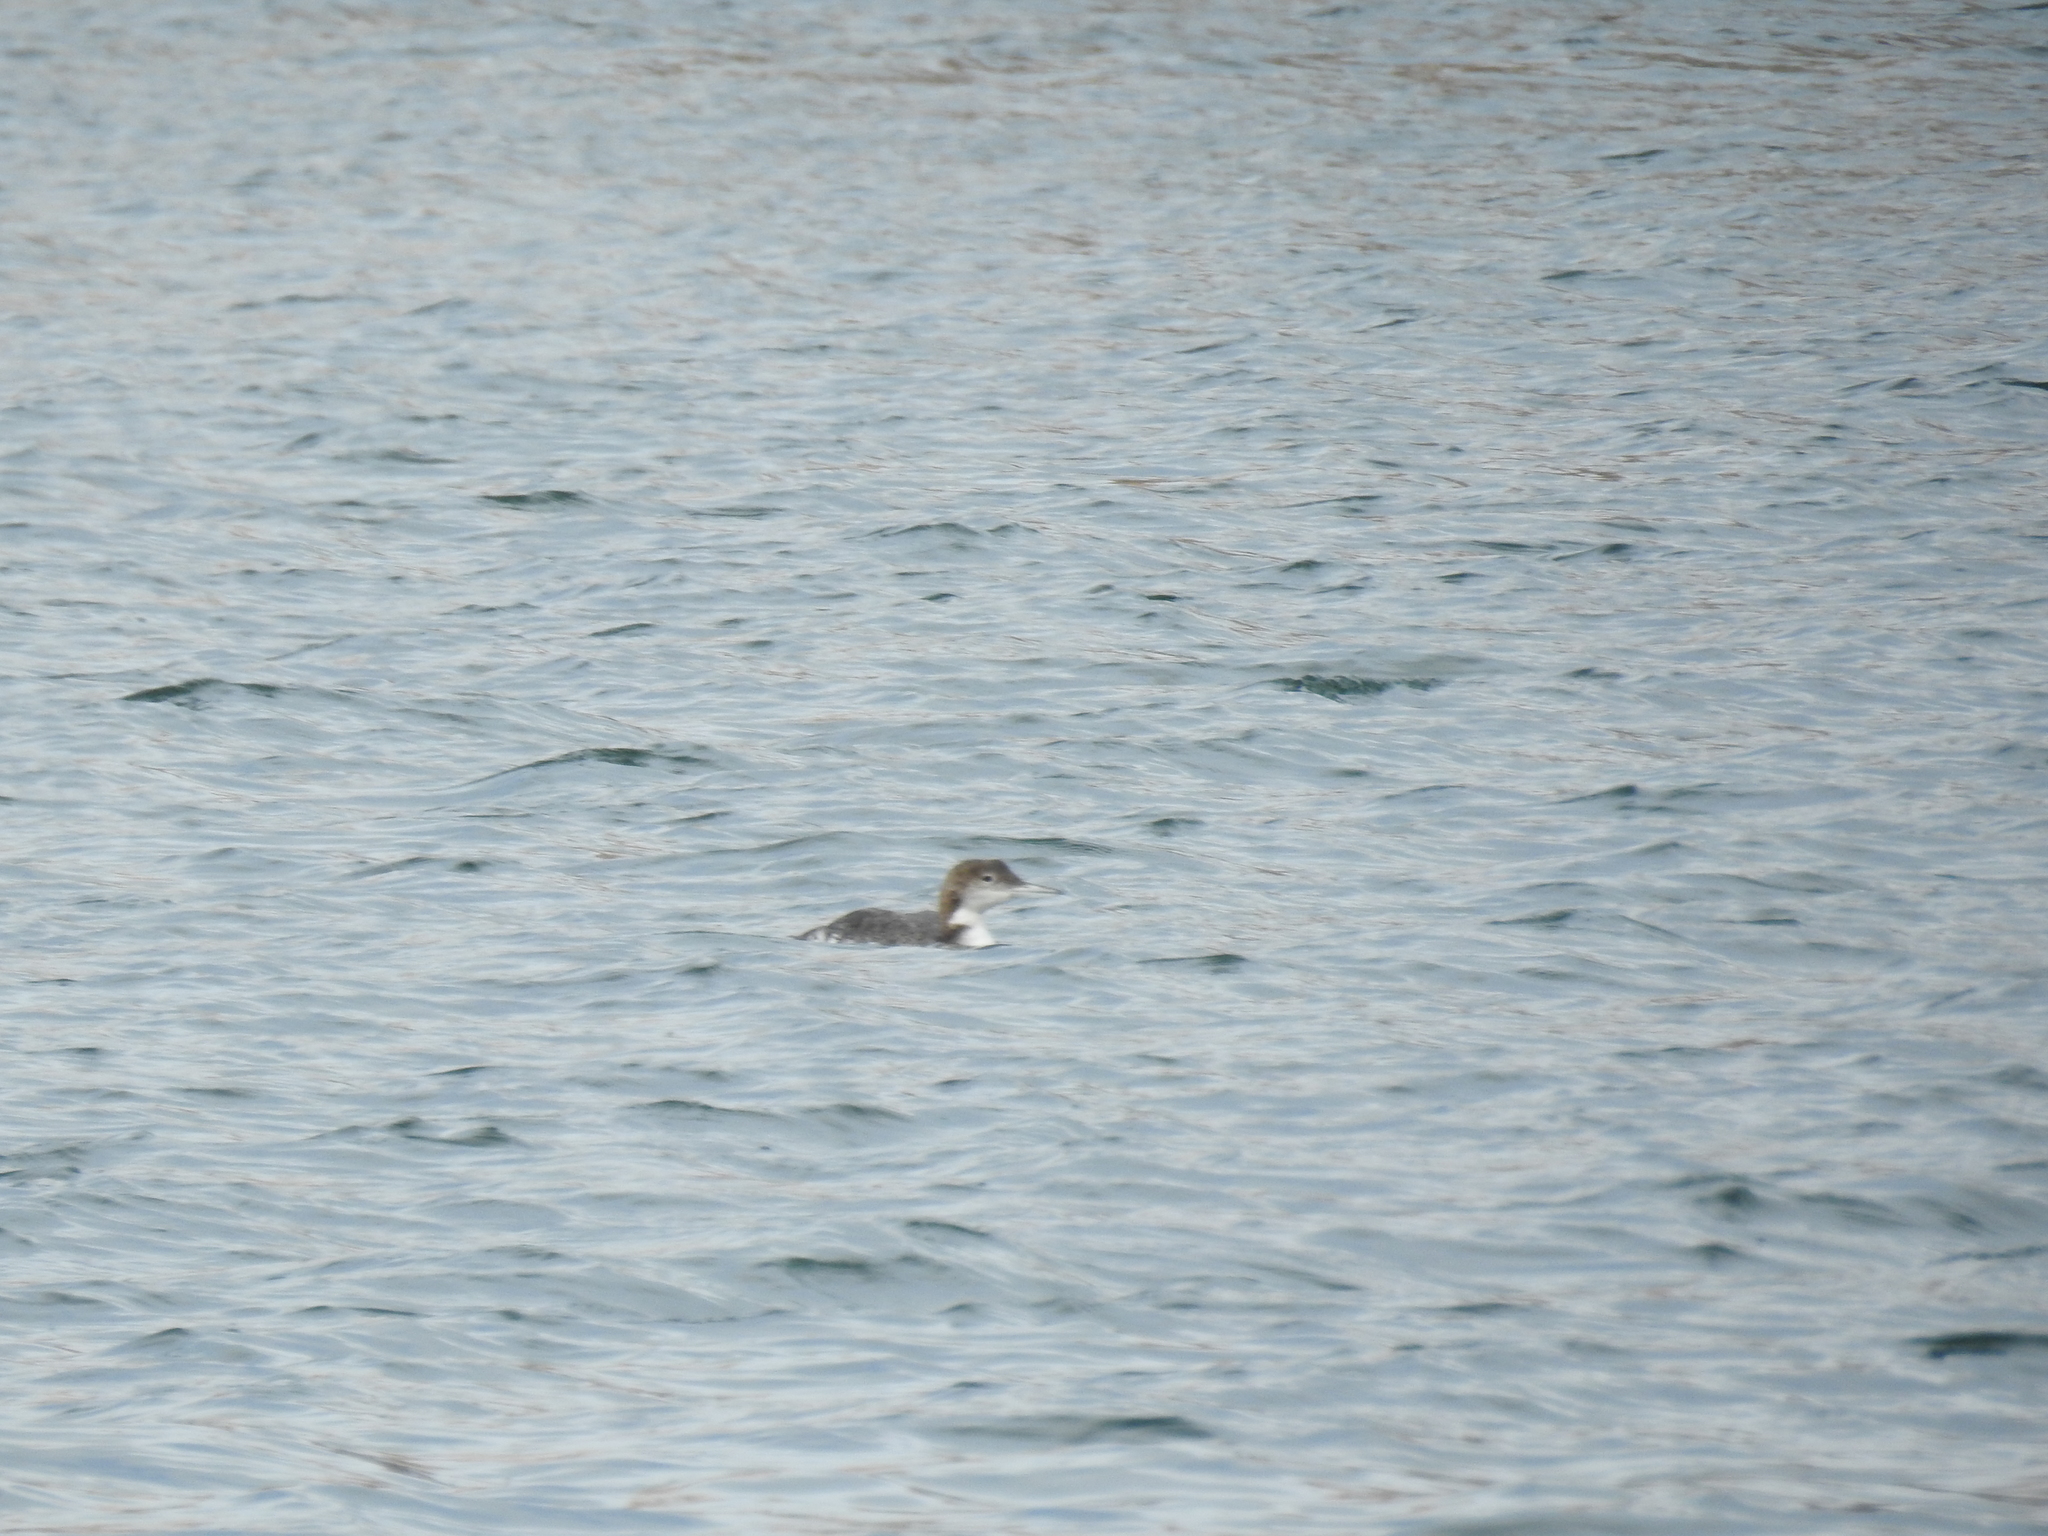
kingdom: Animalia
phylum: Chordata
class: Aves
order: Gaviiformes
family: Gaviidae
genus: Gavia
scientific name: Gavia immer
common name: Common loon
